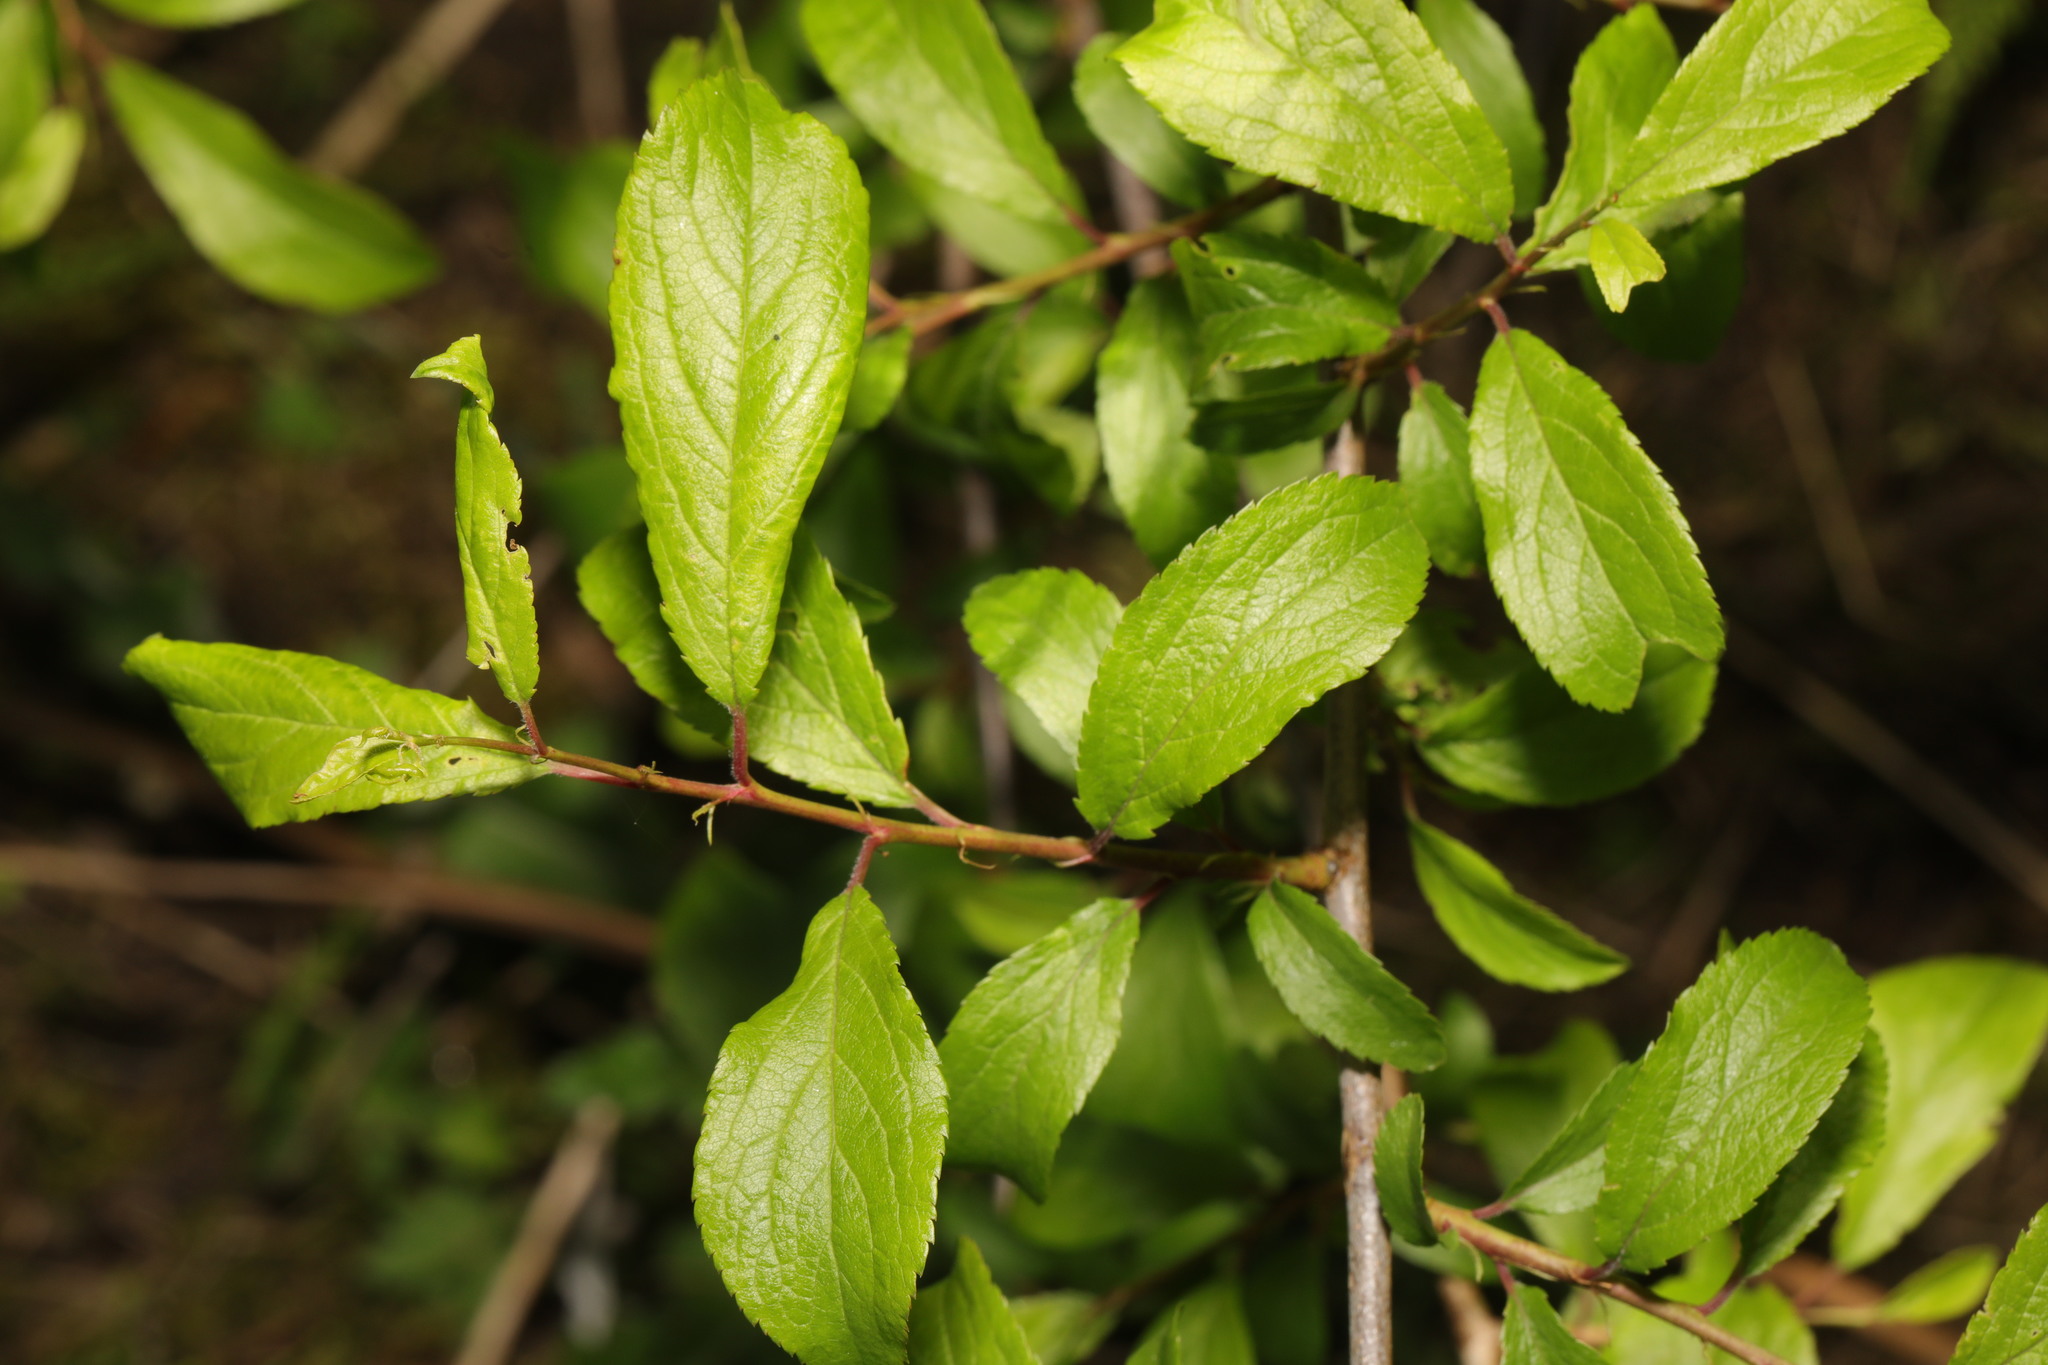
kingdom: Plantae
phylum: Tracheophyta
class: Magnoliopsida
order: Rosales
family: Rosaceae
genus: Prunus
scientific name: Prunus spinosa
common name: Blackthorn
